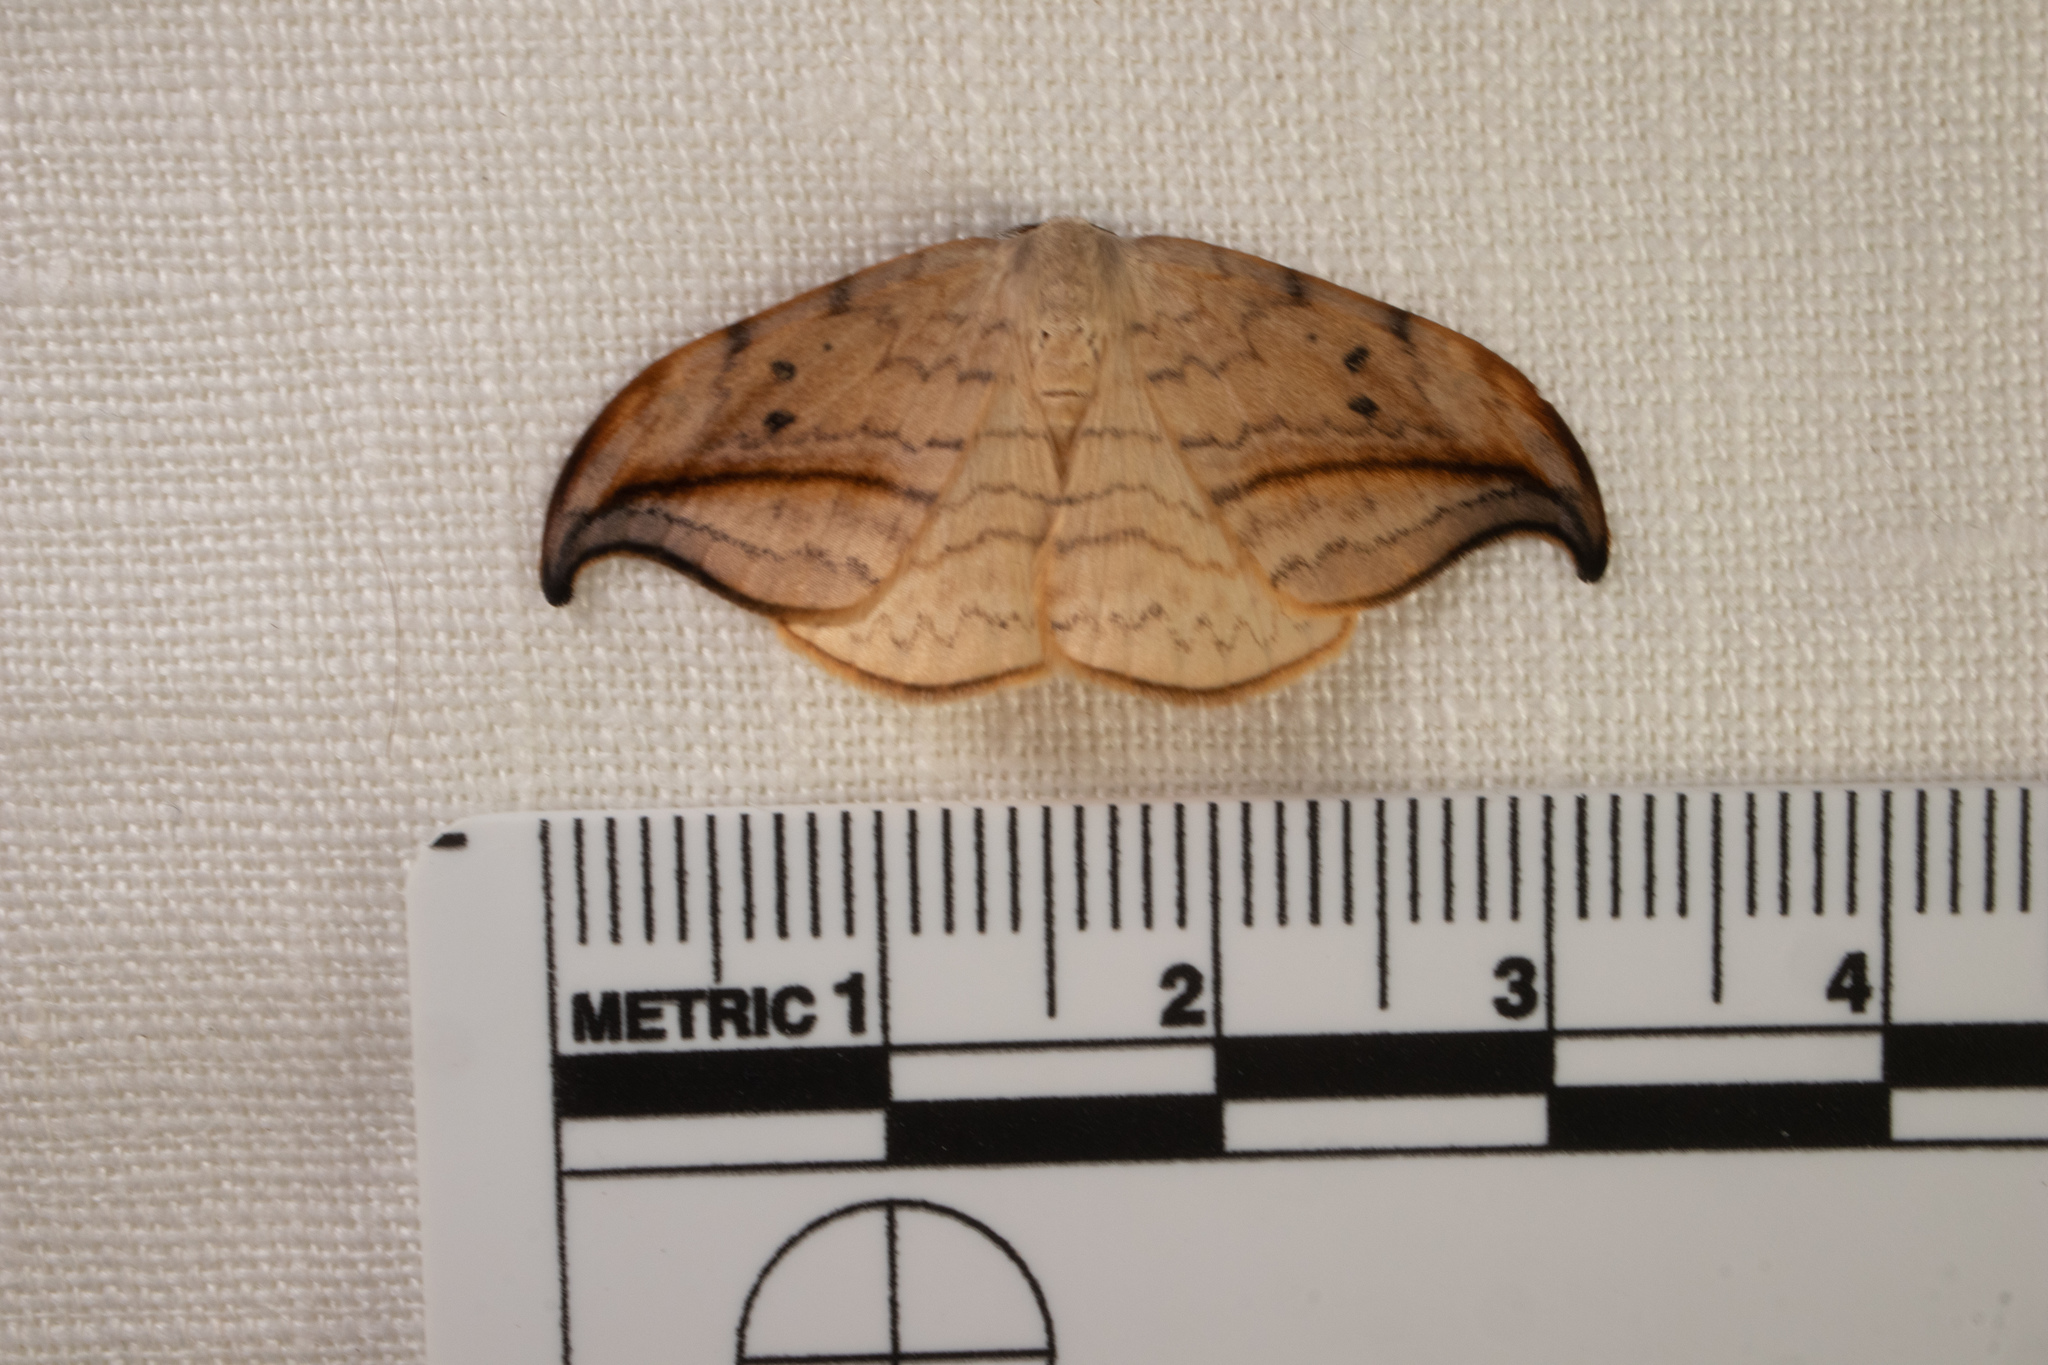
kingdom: Animalia
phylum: Arthropoda
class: Insecta
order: Lepidoptera
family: Drepanidae
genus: Drepana
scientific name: Drepana arcuata
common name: Arched hooktip moth
